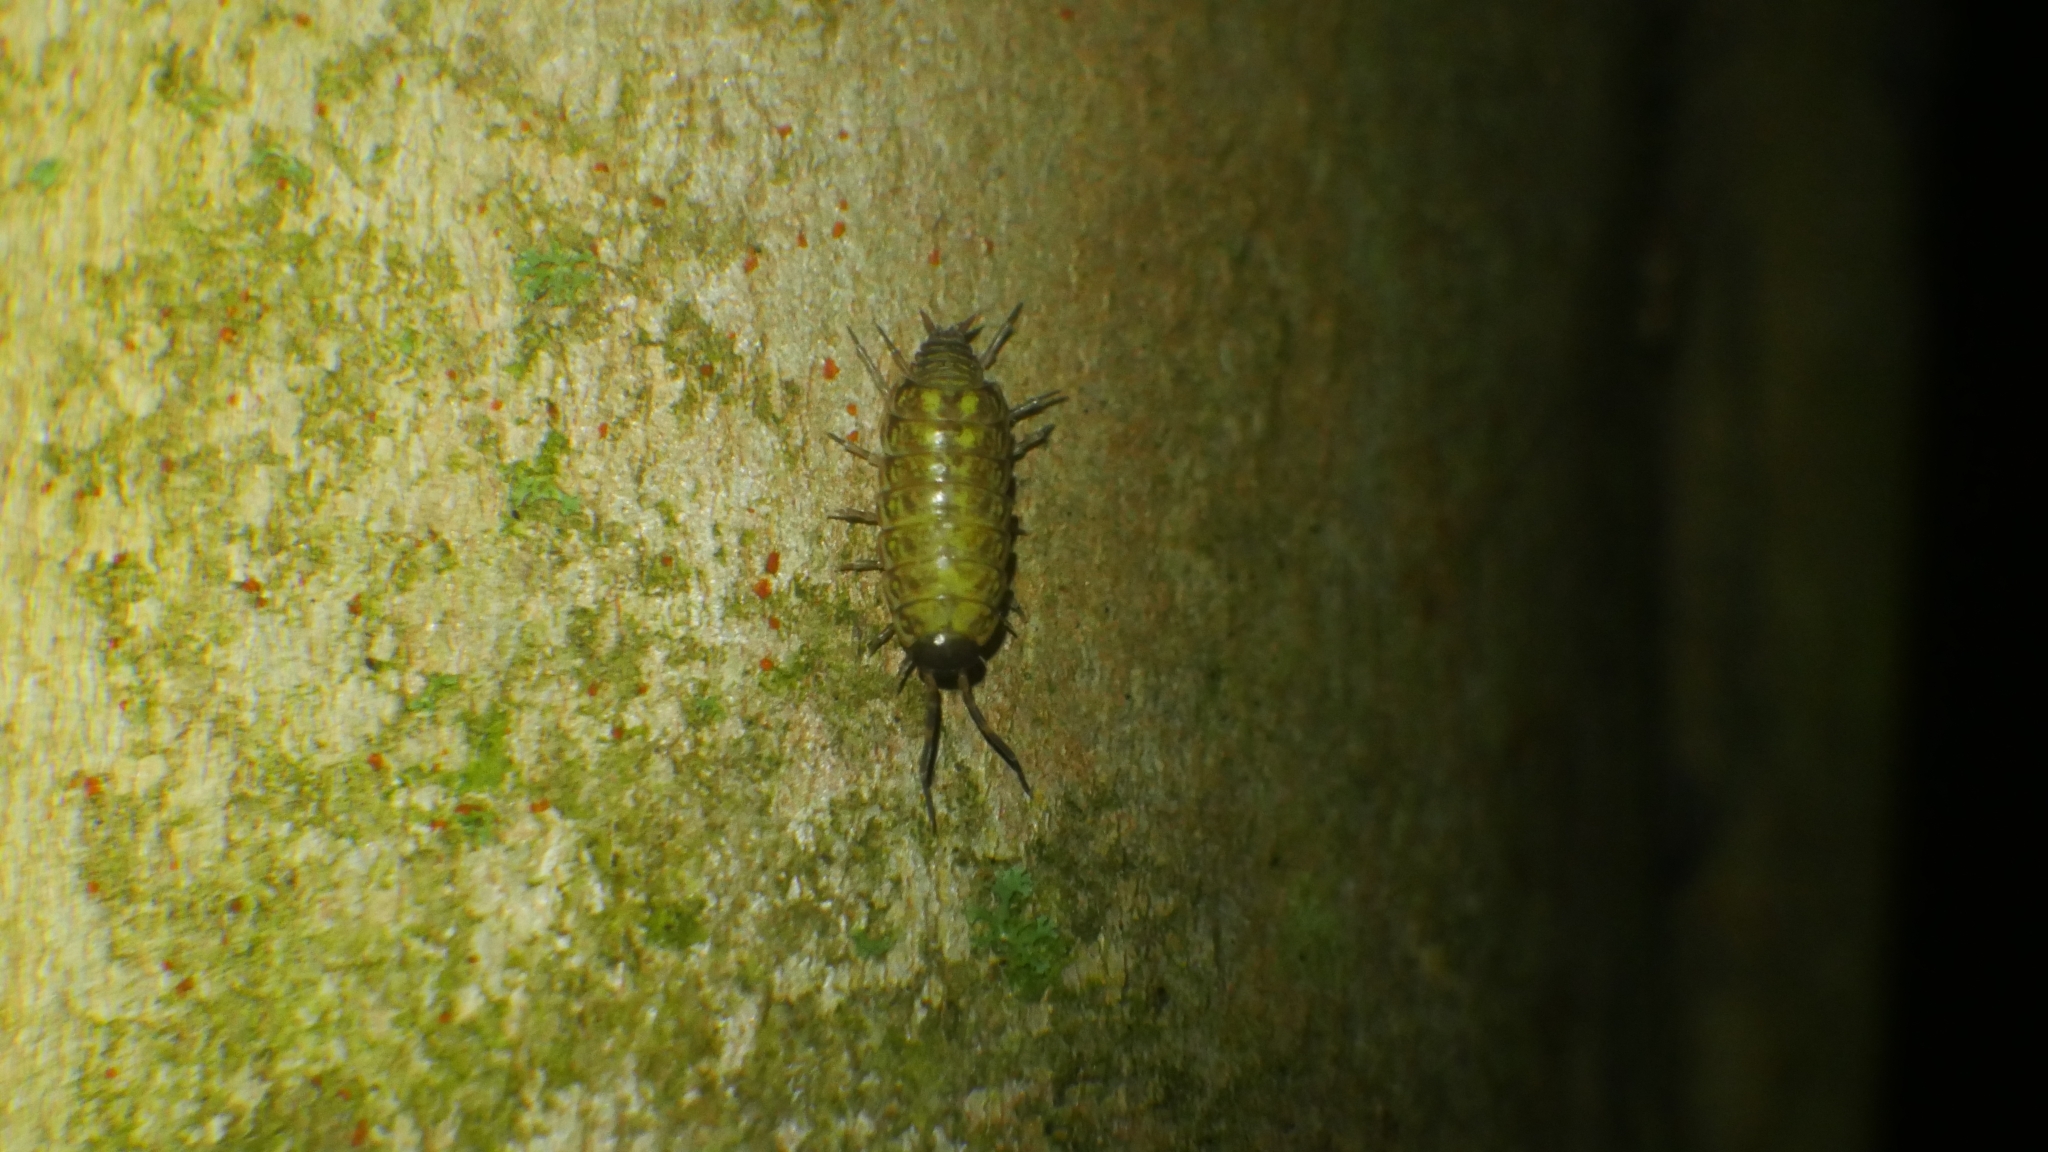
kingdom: Animalia
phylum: Arthropoda
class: Malacostraca
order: Isopoda
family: Philosciidae
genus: Philoscia
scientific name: Philoscia muscorum
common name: Common striped woodlouse
